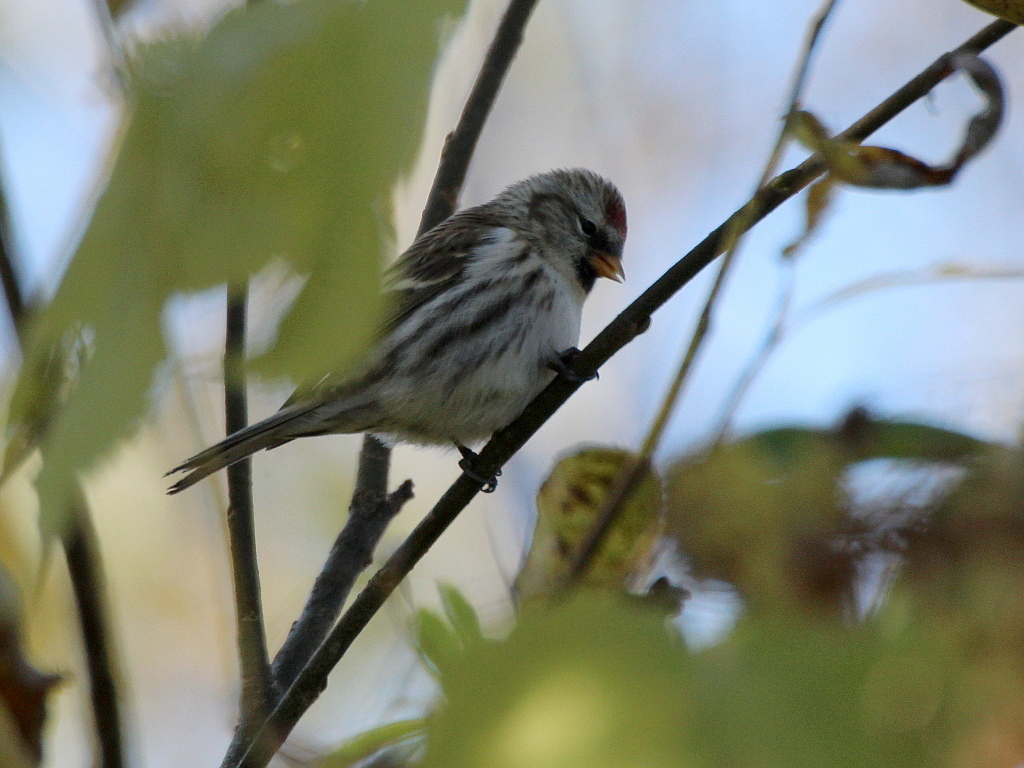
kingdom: Animalia
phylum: Chordata
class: Aves
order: Passeriformes
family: Fringillidae
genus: Acanthis
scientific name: Acanthis flammea
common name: Common redpoll
